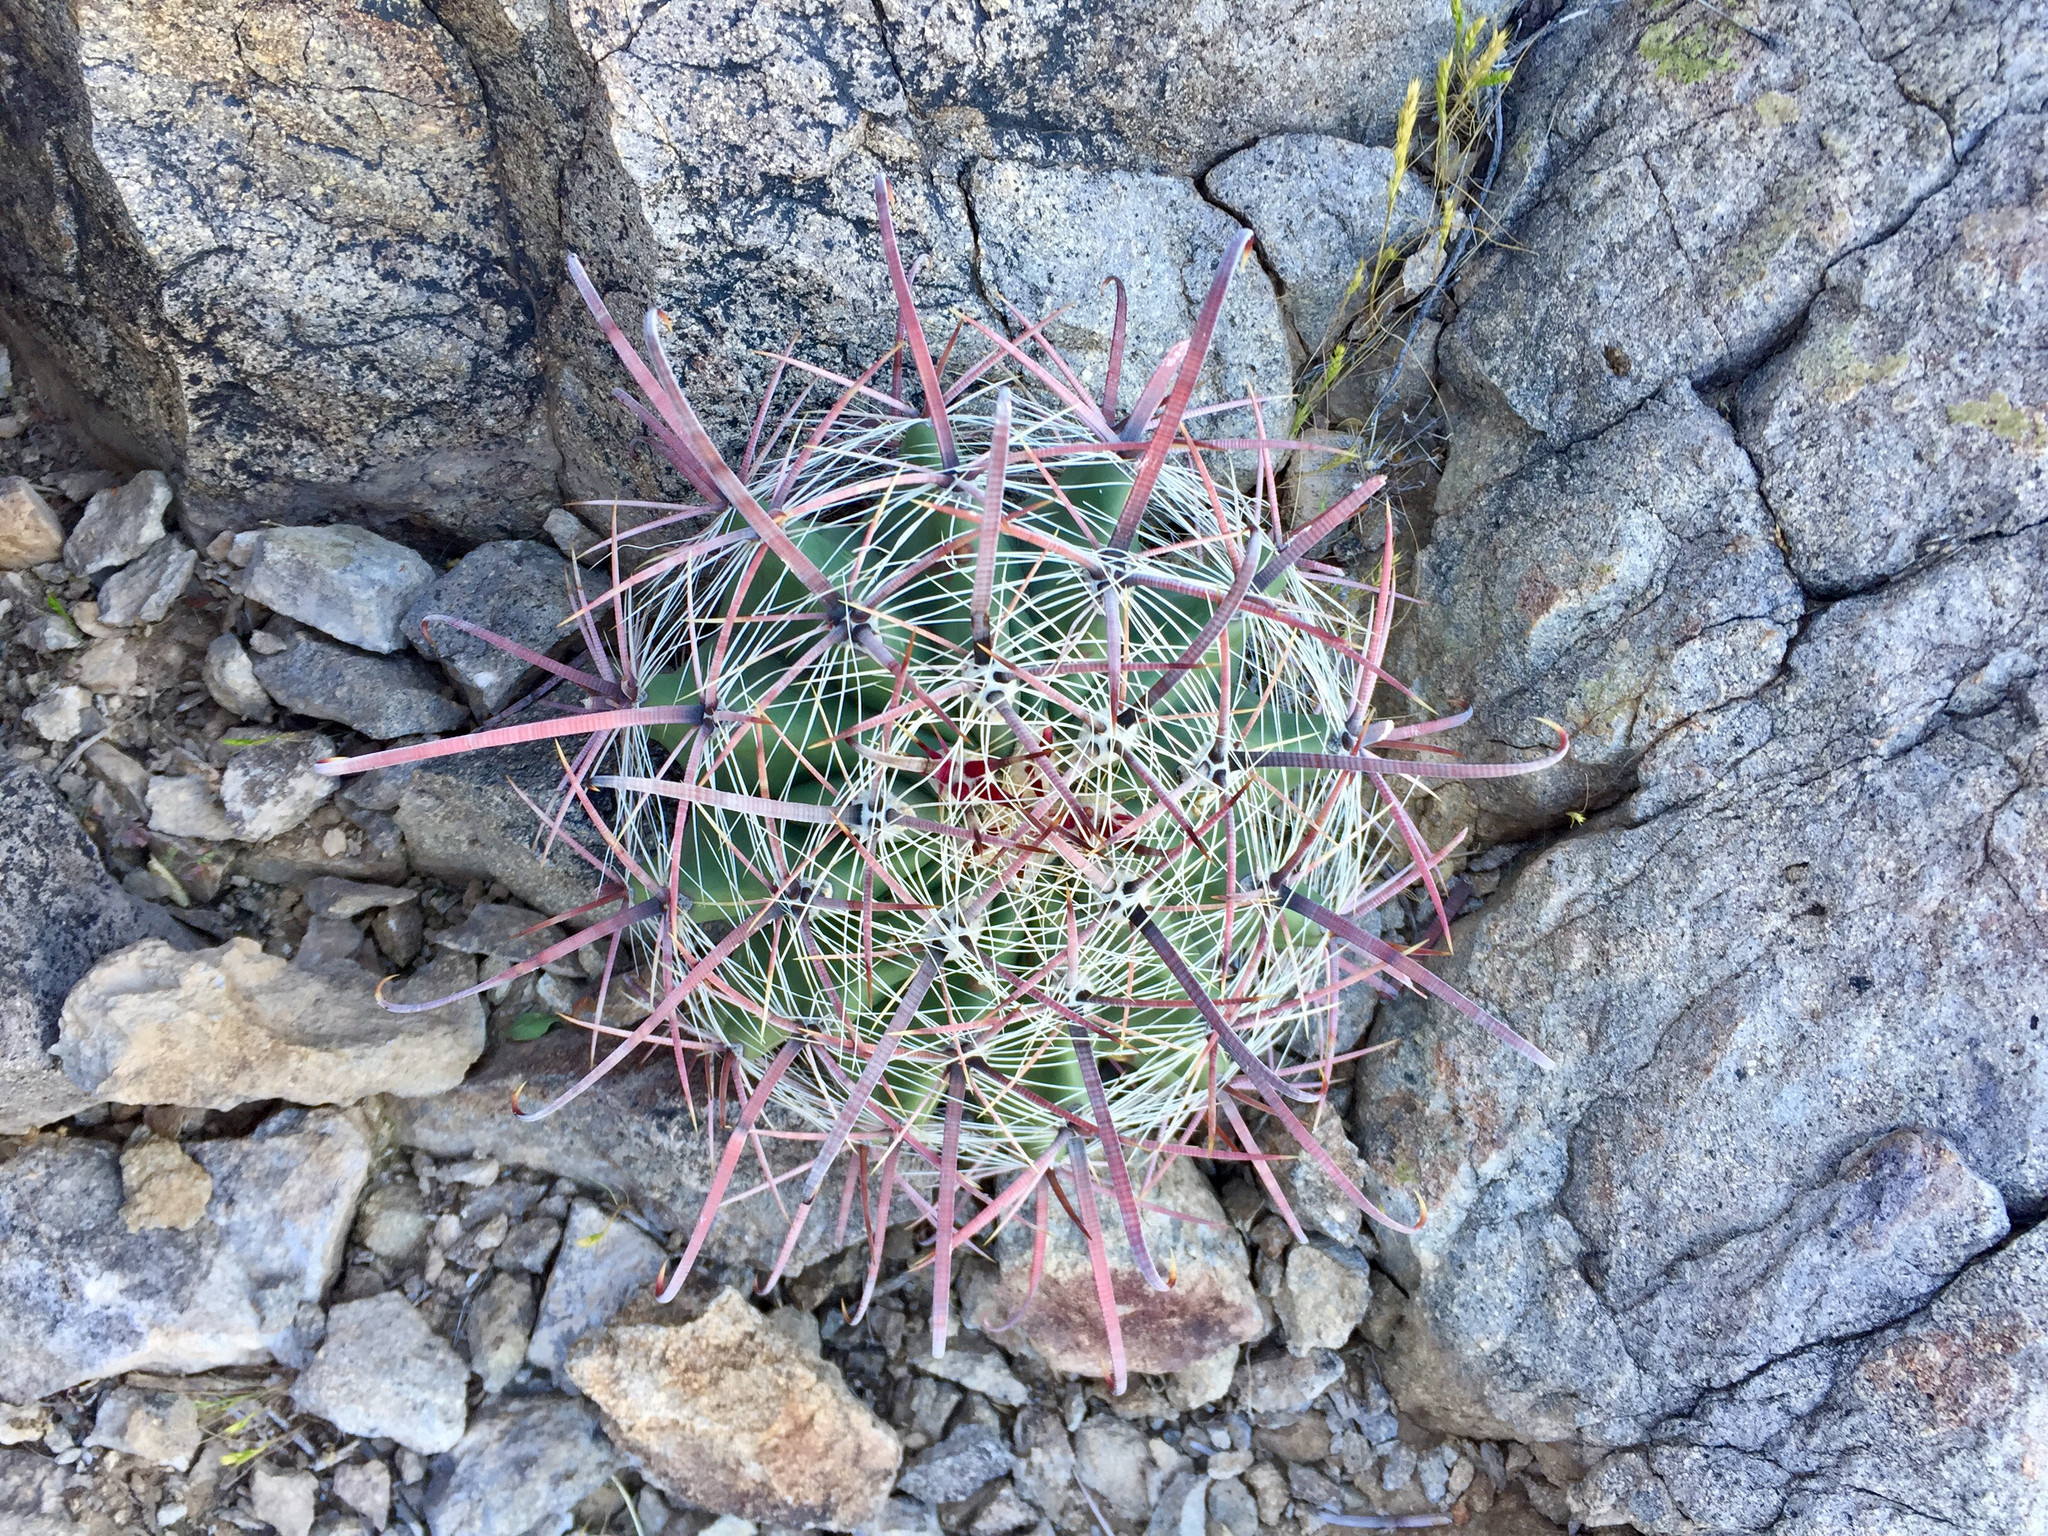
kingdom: Plantae
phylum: Tracheophyta
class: Magnoliopsida
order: Caryophyllales
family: Cactaceae
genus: Ferocactus
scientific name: Ferocactus wislizeni
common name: Candy barrel cactus
